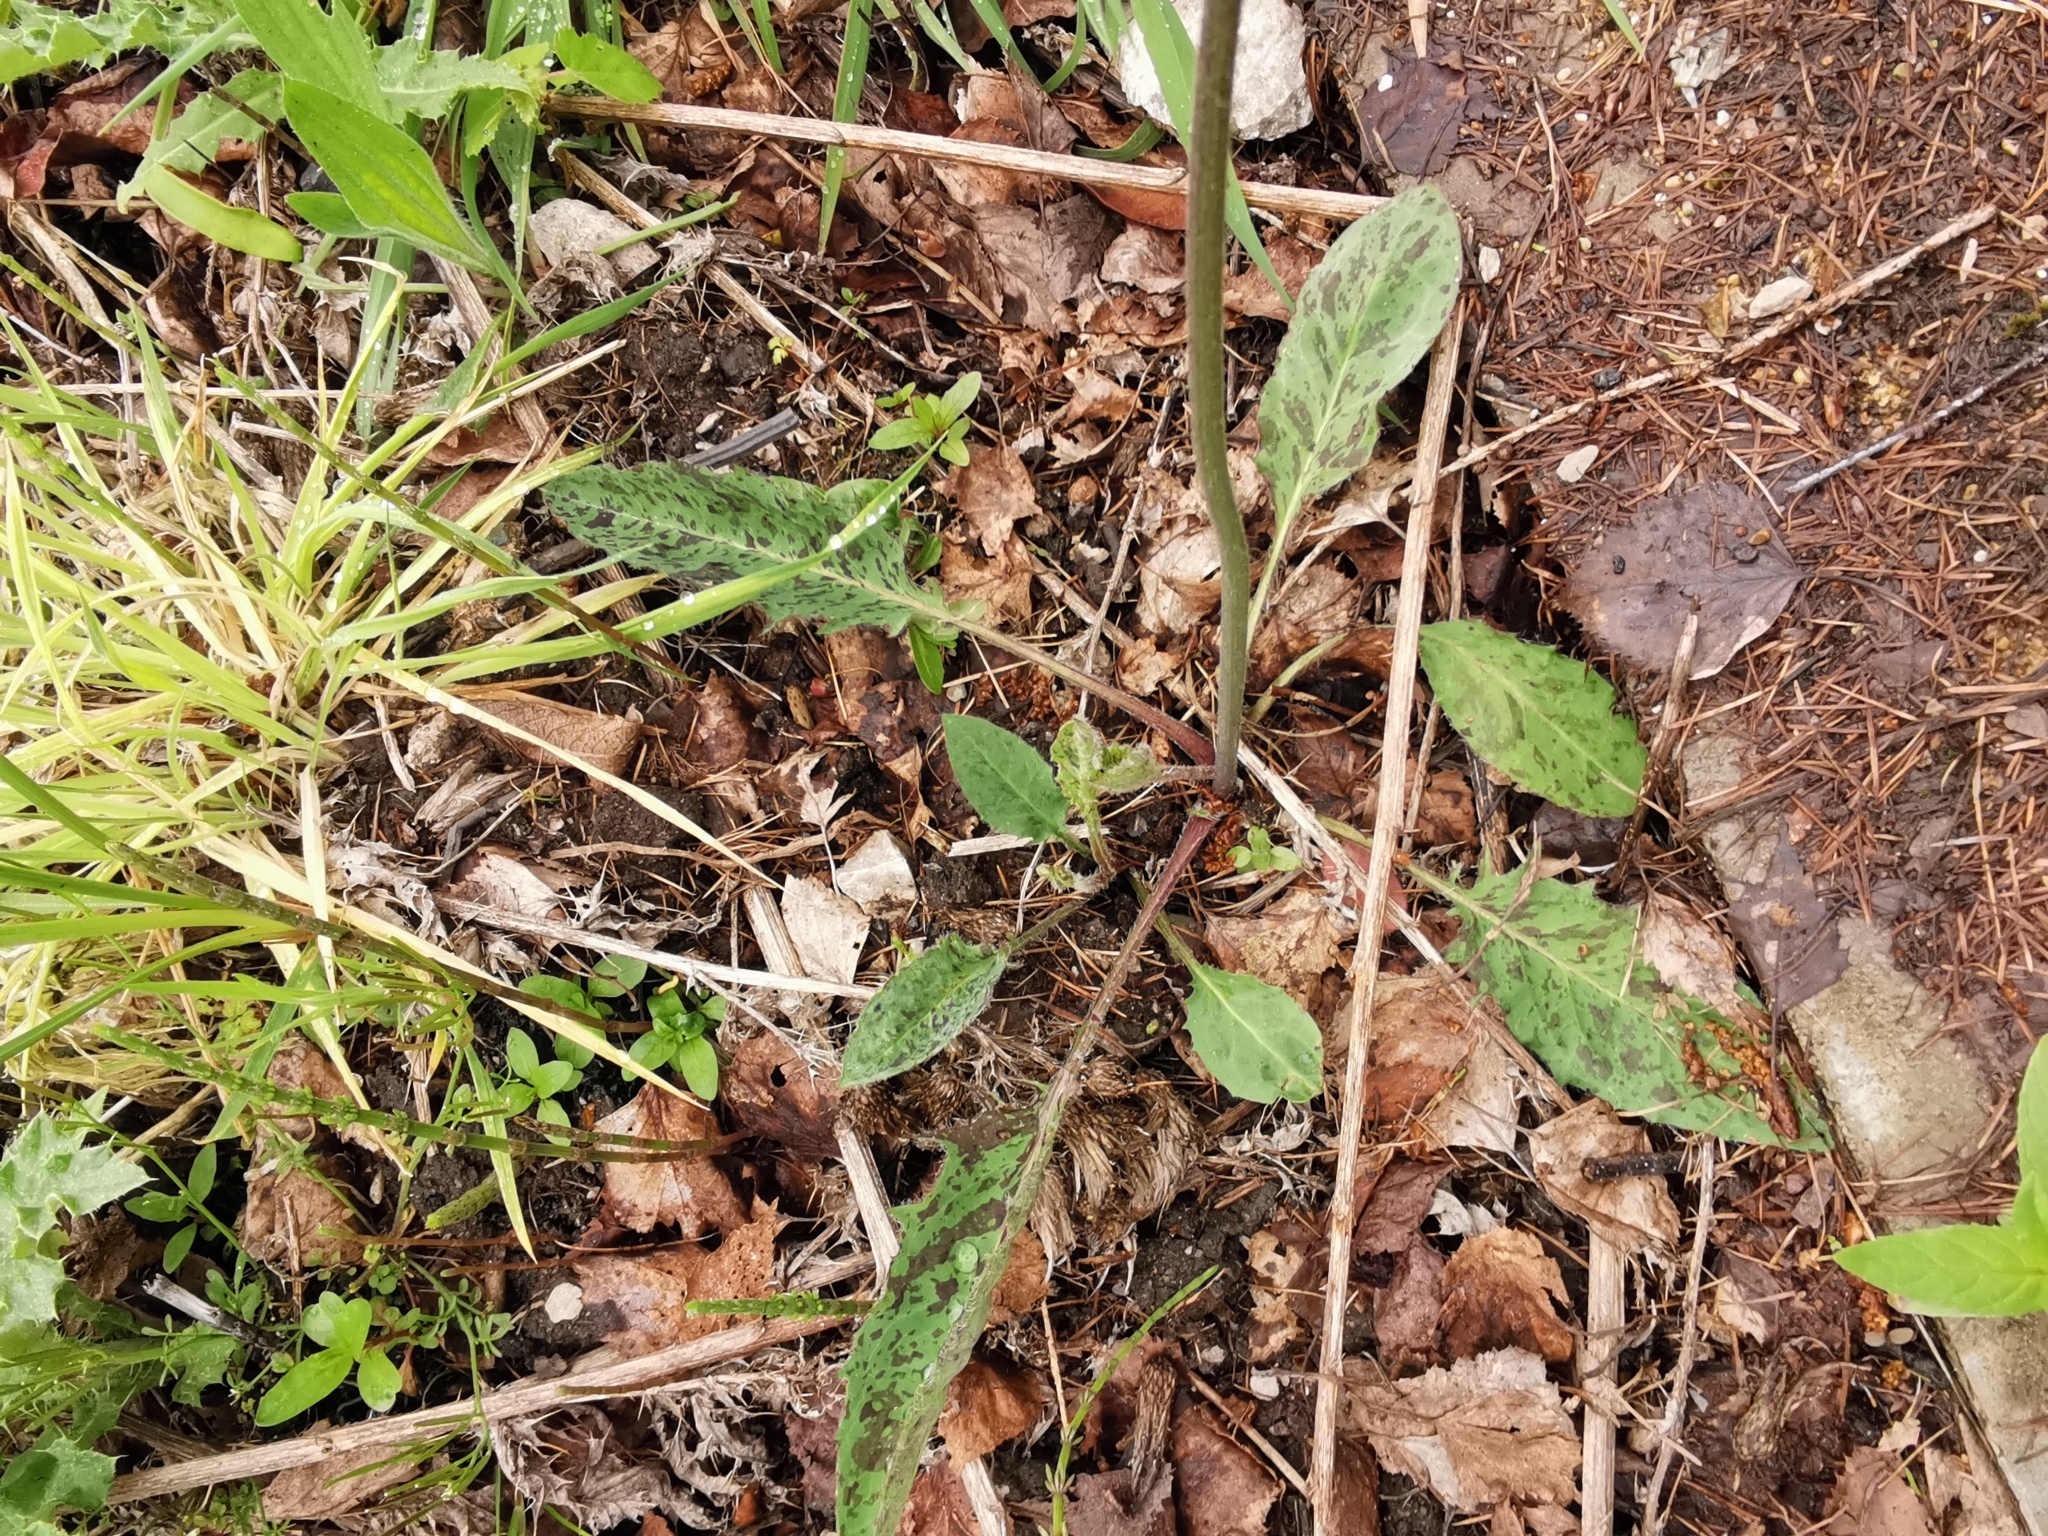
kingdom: Plantae
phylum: Tracheophyta
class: Magnoliopsida
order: Asterales
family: Asteraceae
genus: Hieracium
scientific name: Hieracium maculatum
